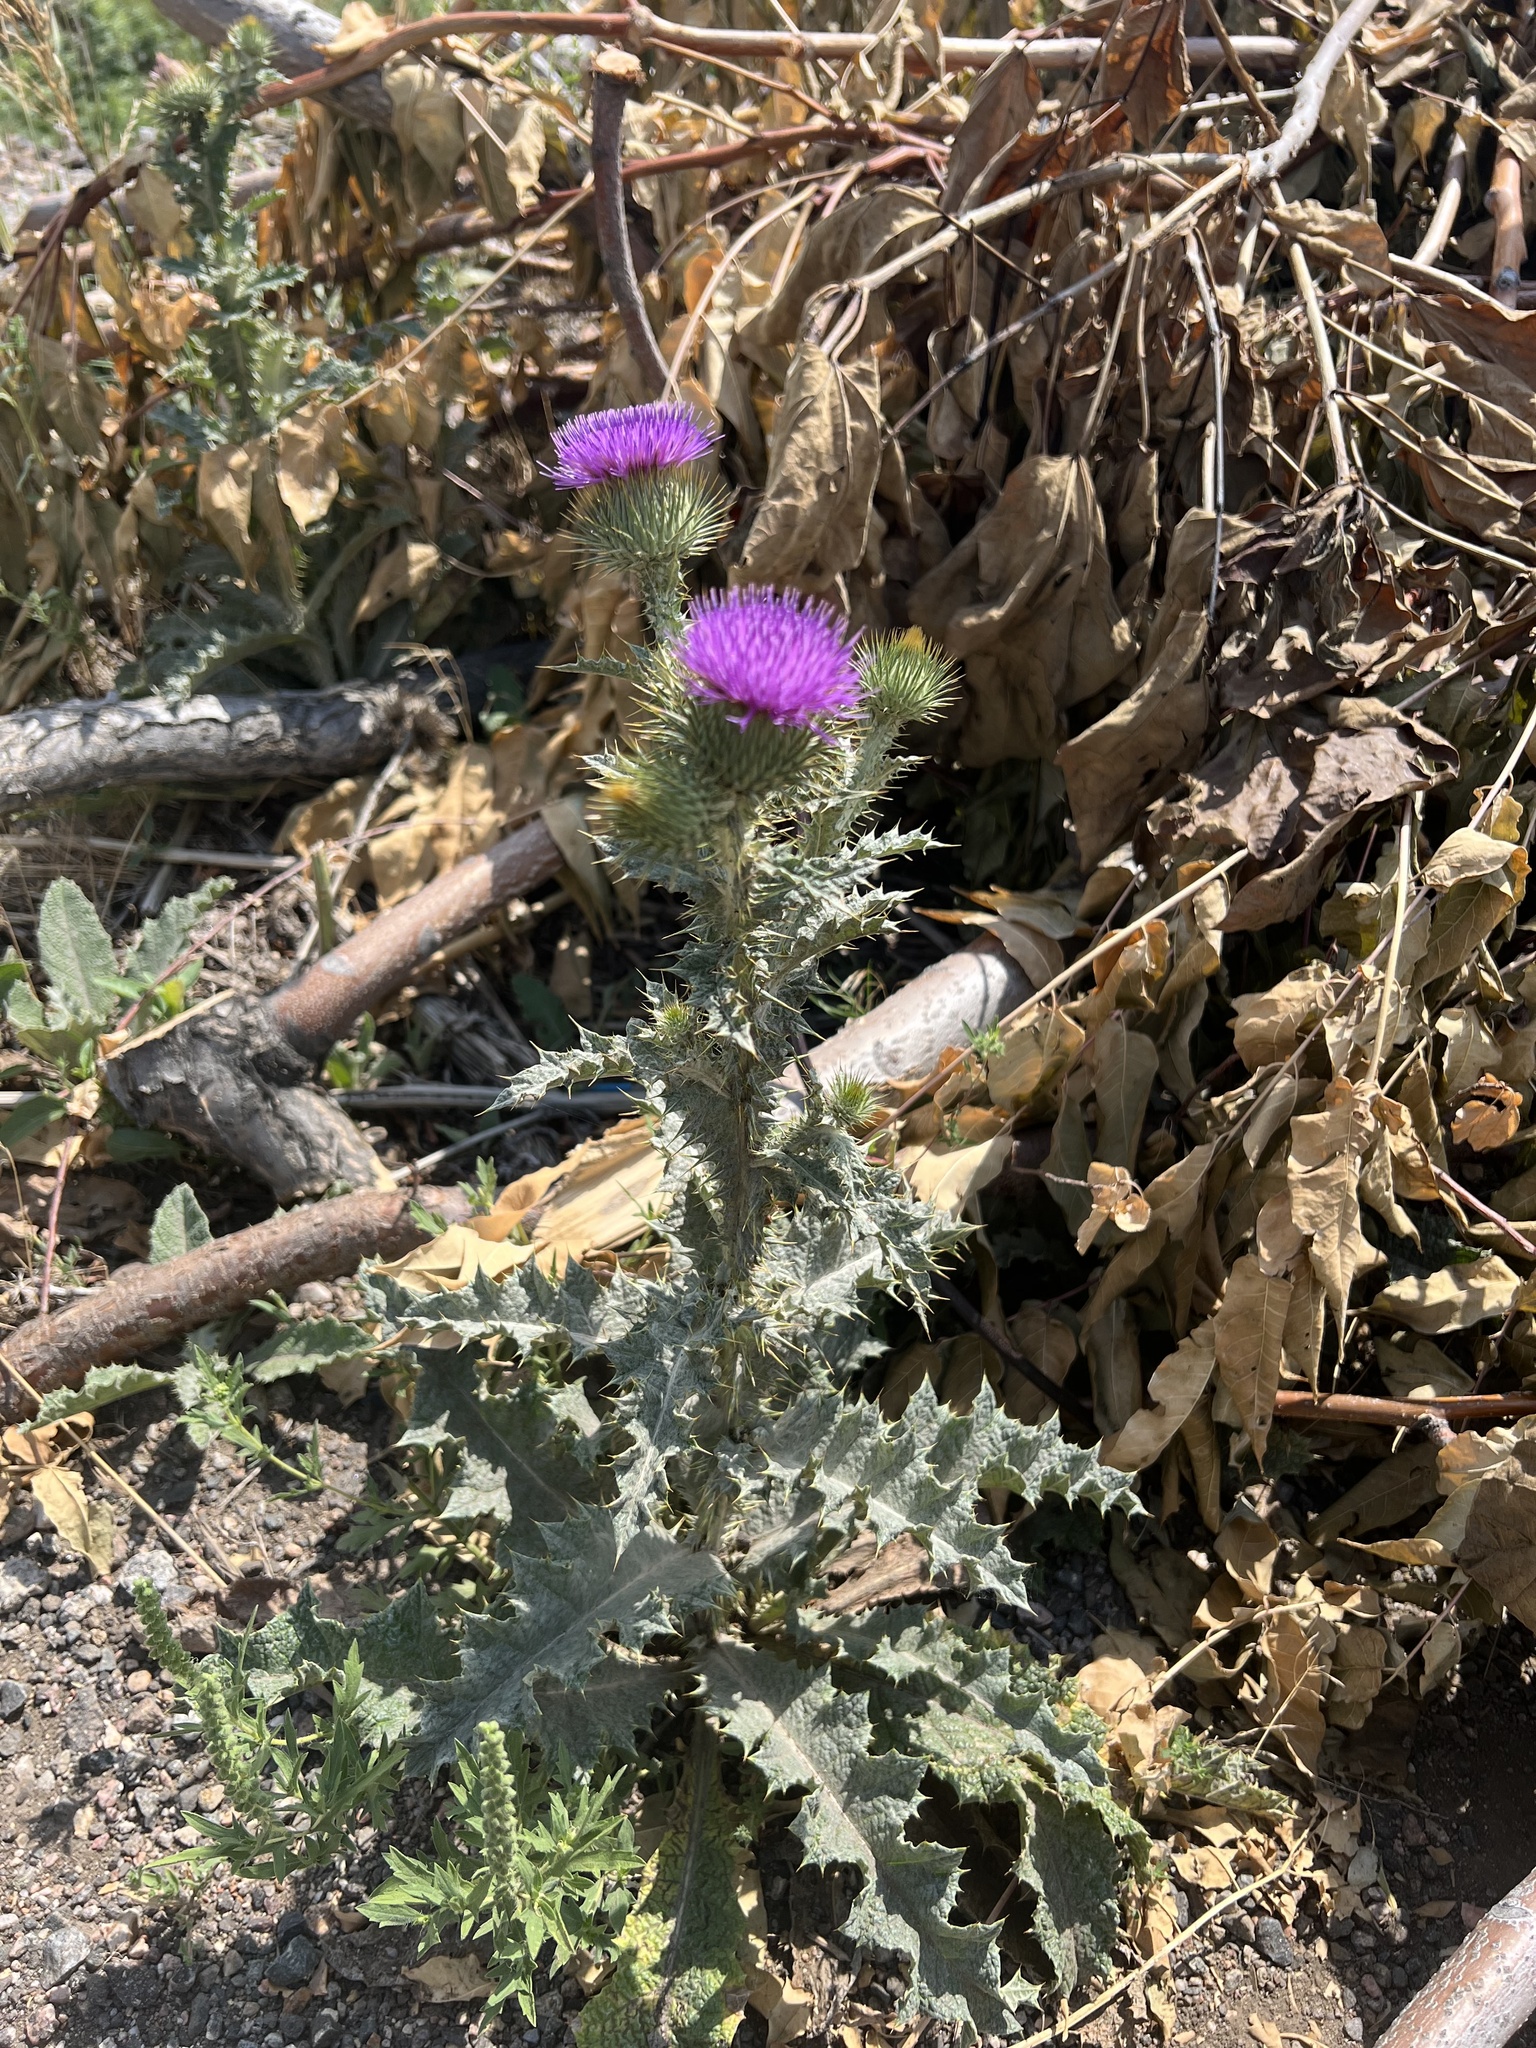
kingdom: Plantae
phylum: Tracheophyta
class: Magnoliopsida
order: Asterales
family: Asteraceae
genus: Onopordum
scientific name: Onopordum acanthium
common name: Scotch thistle
